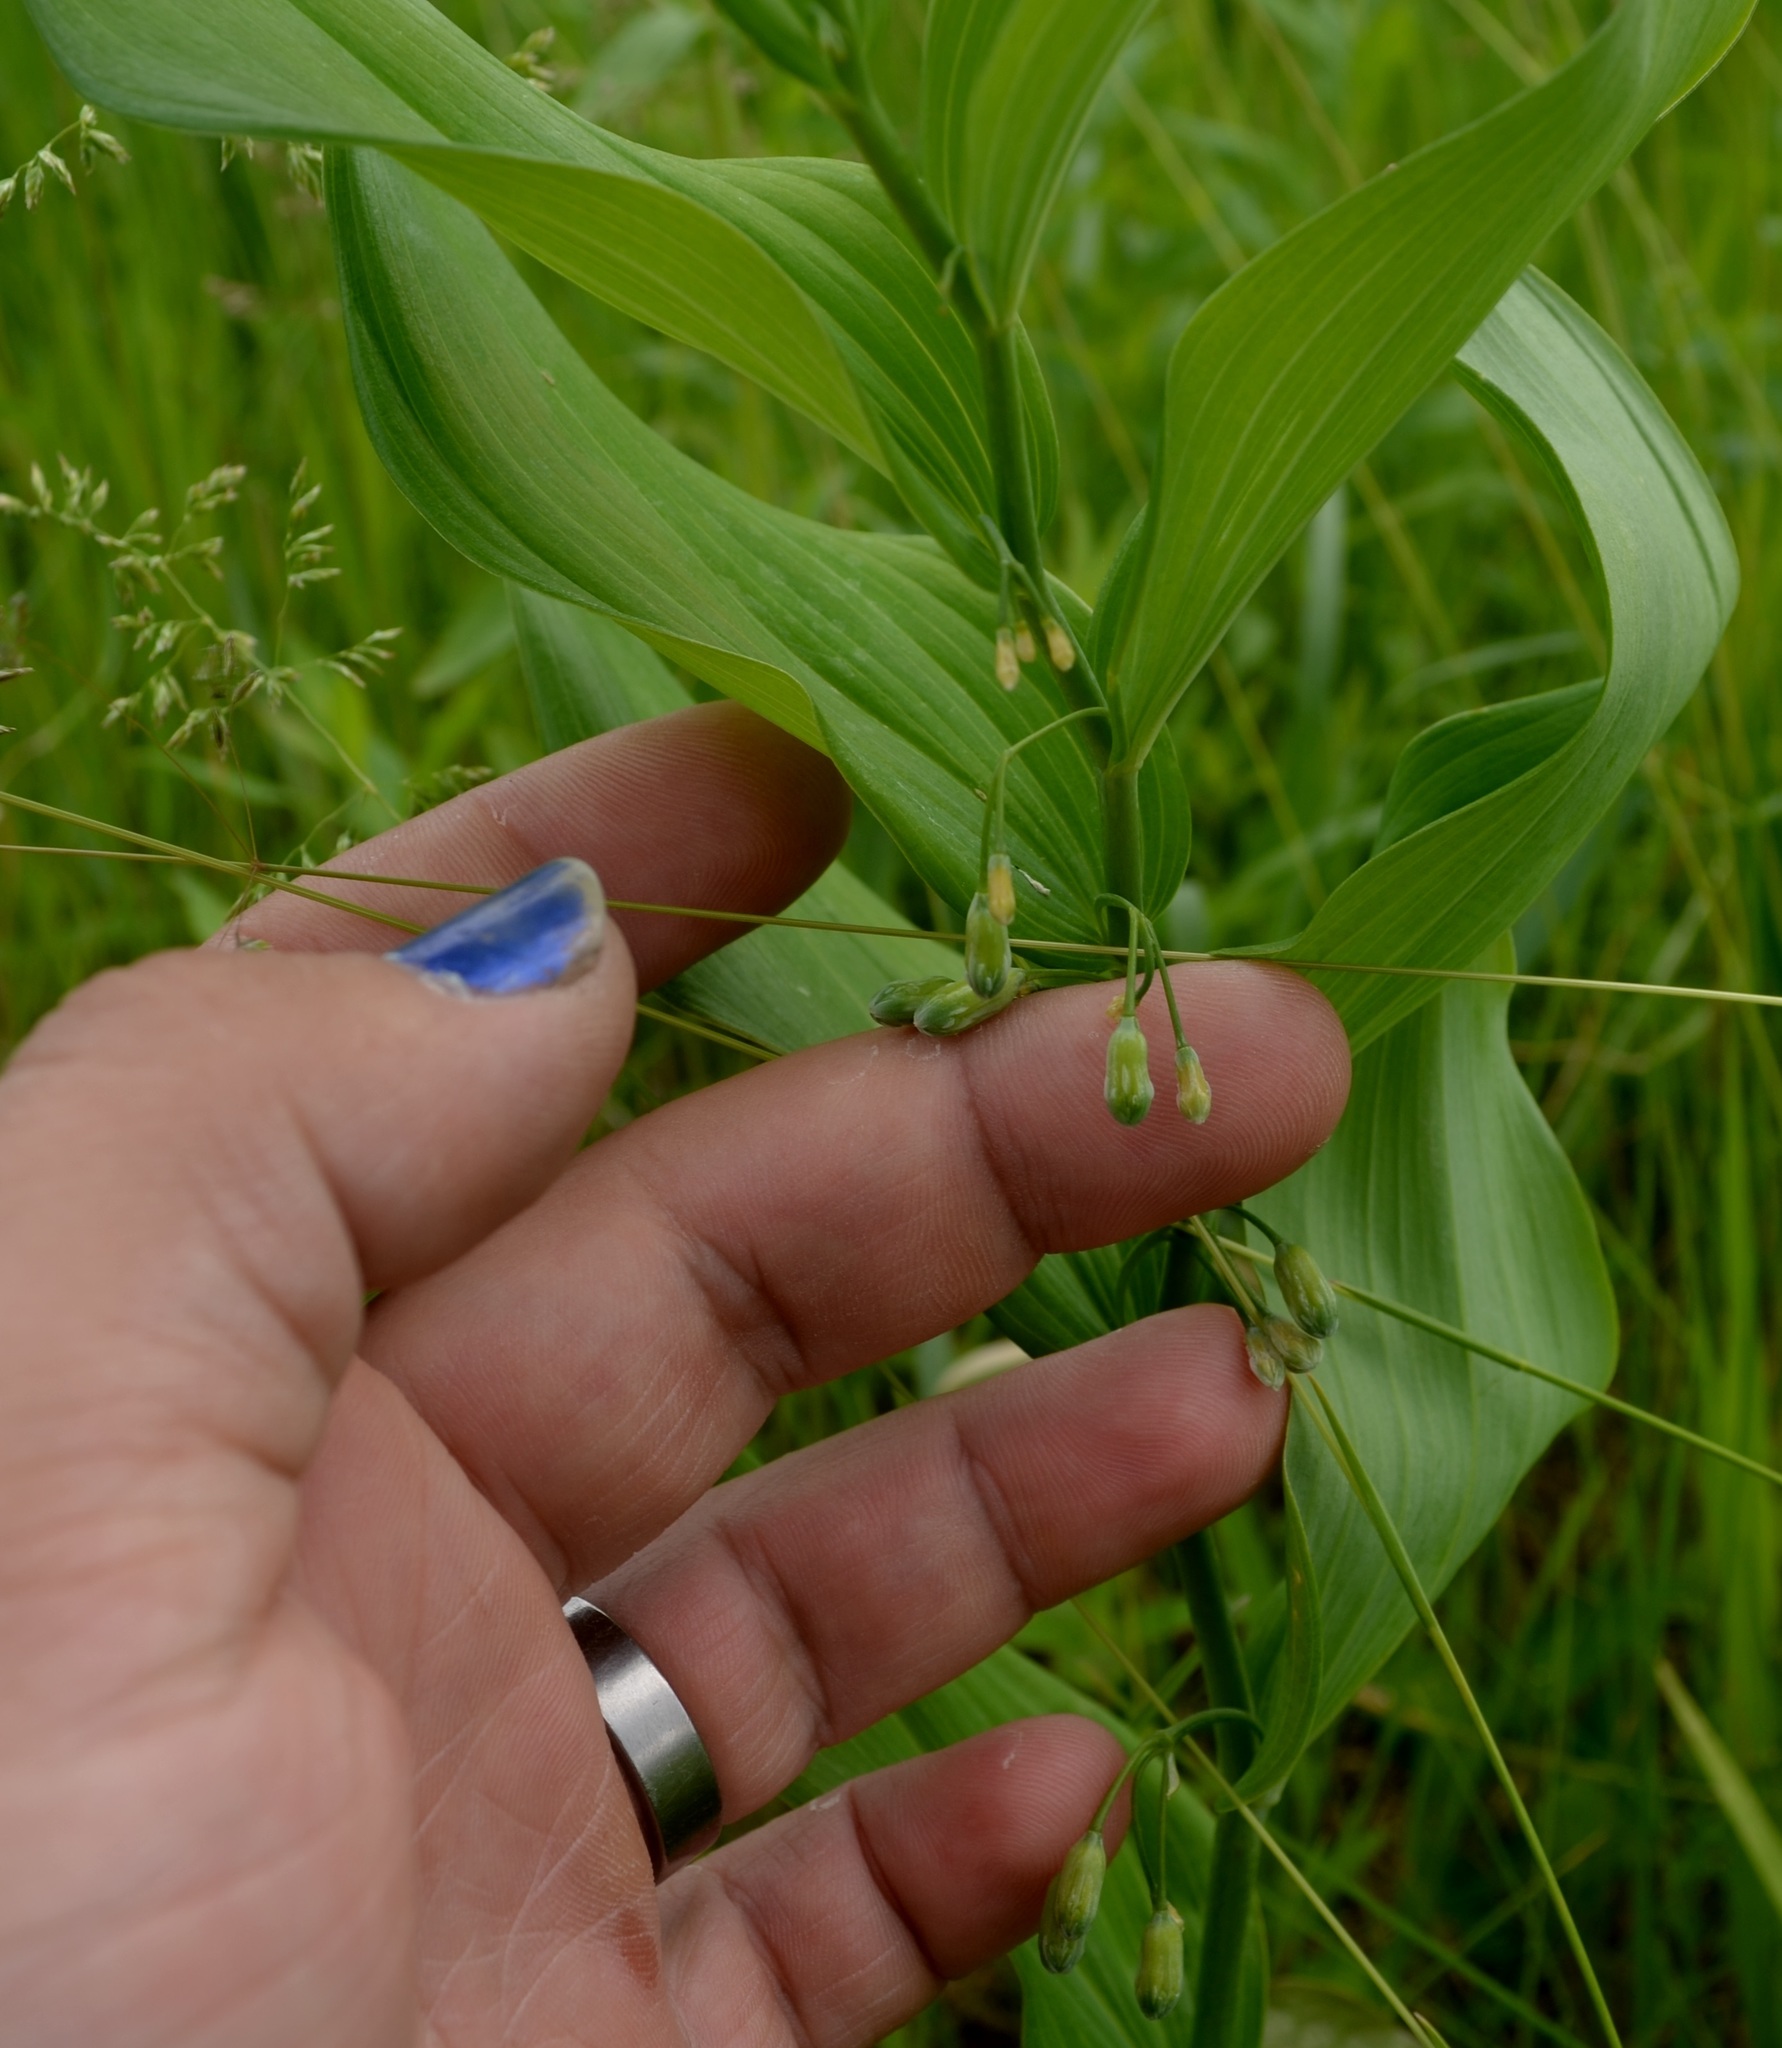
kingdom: Plantae
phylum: Tracheophyta
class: Liliopsida
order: Asparagales
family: Asparagaceae
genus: Polygonatum
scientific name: Polygonatum biflorum
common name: American solomon's-seal
